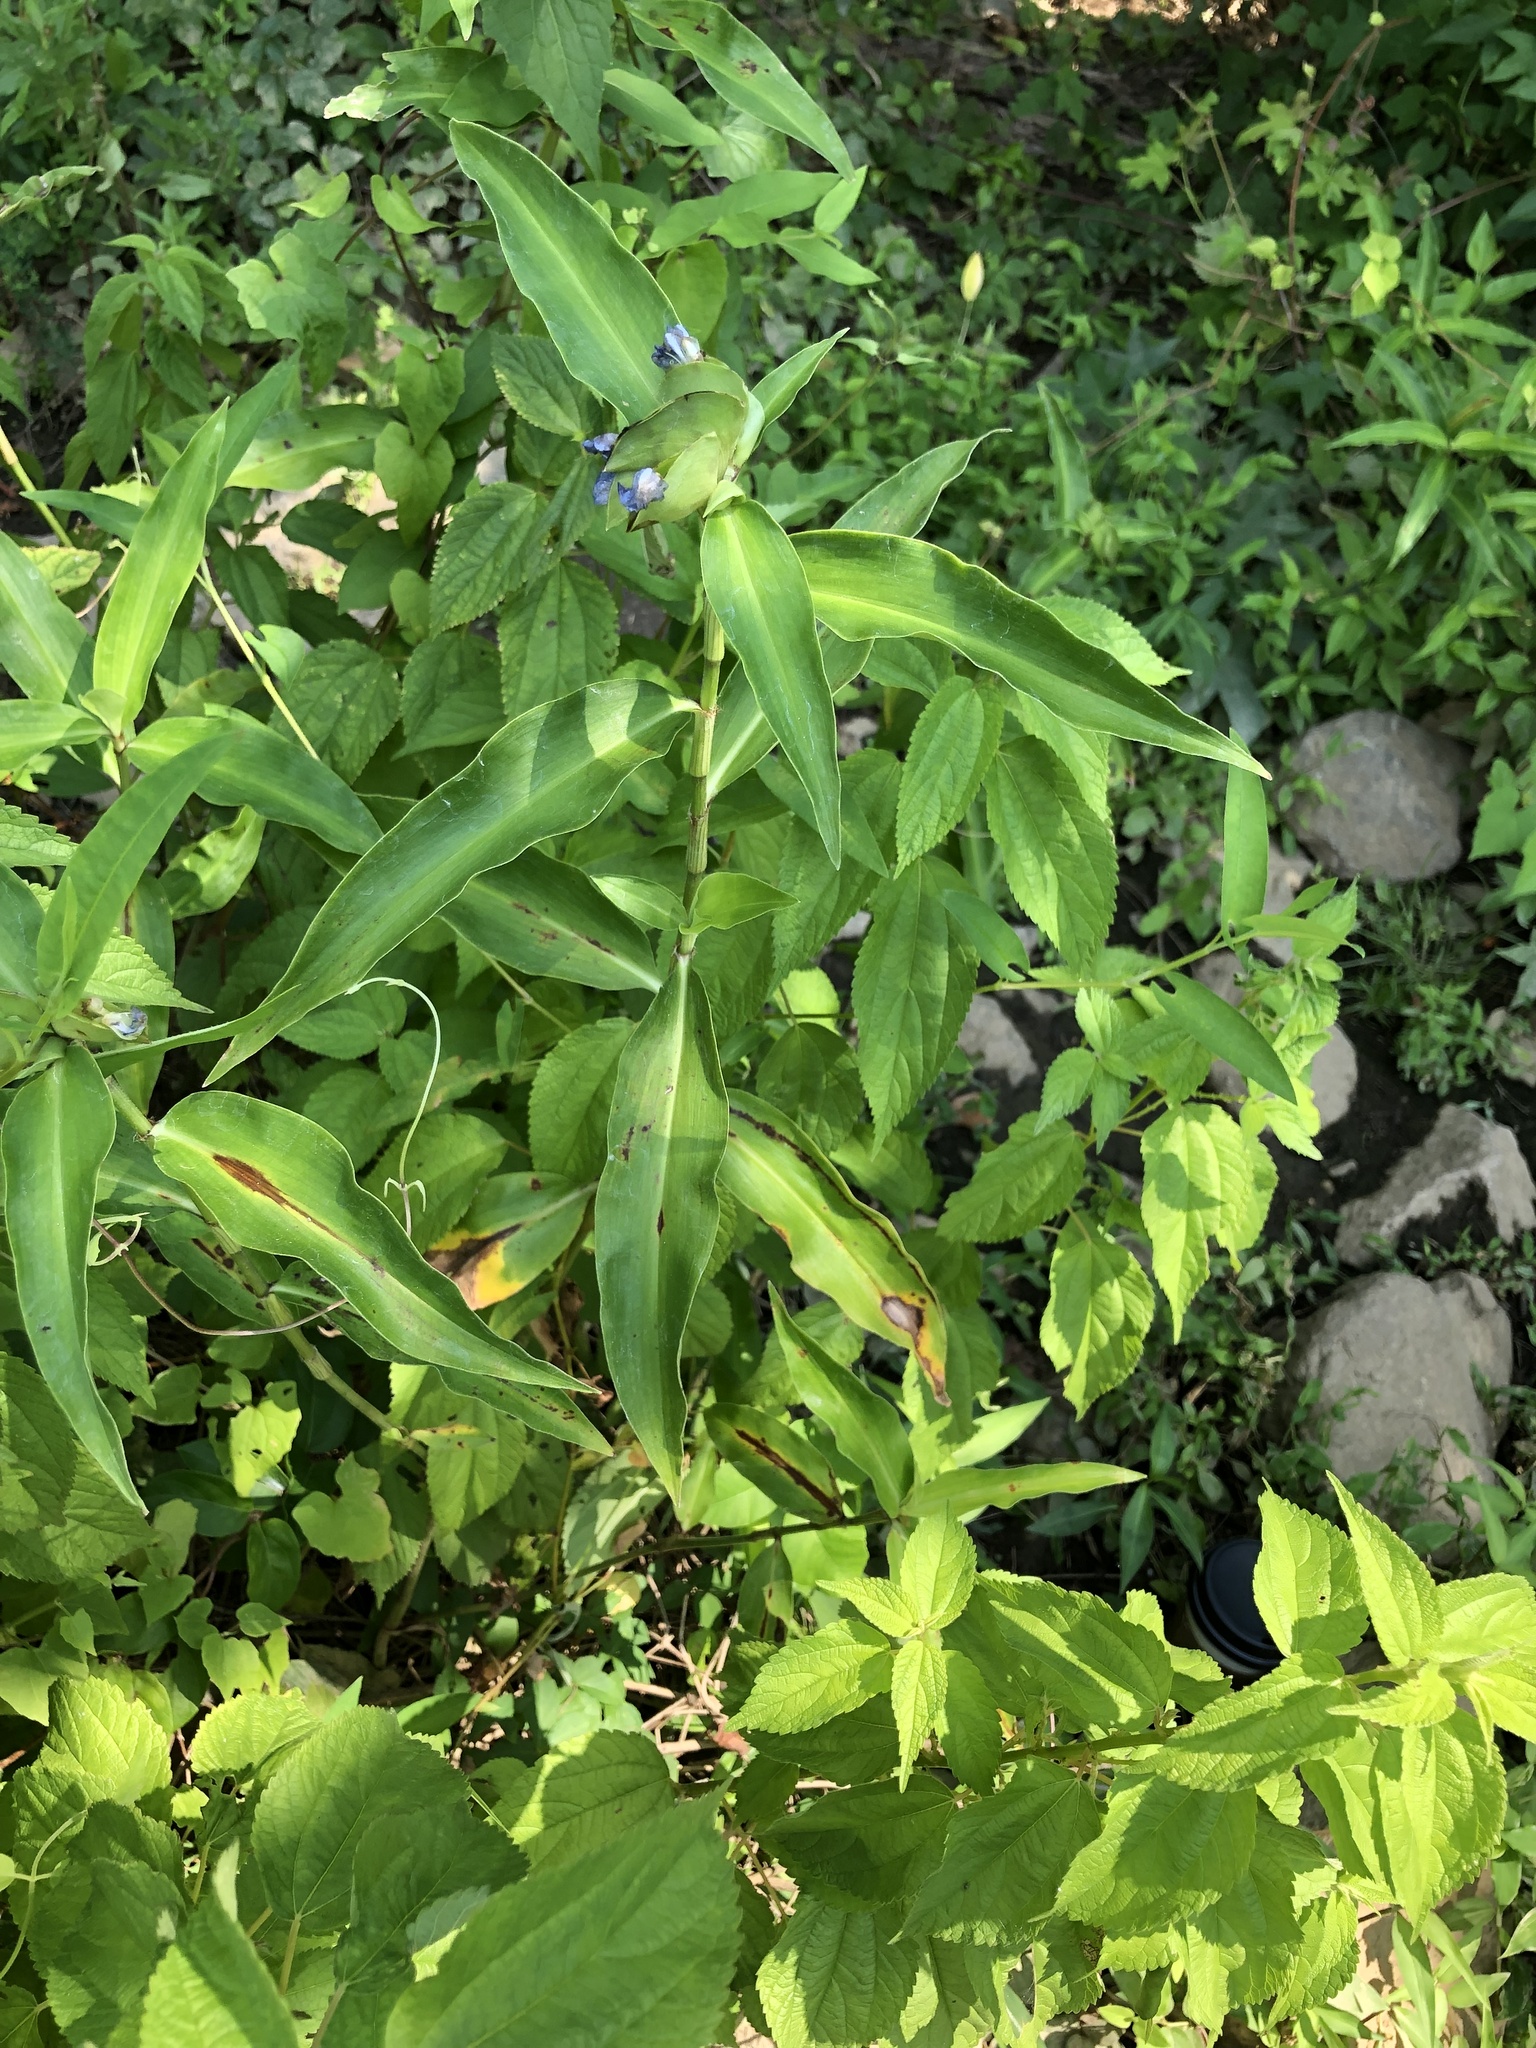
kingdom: Plantae
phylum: Tracheophyta
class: Liliopsida
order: Commelinales
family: Commelinaceae
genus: Commelina
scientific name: Commelina virginica
